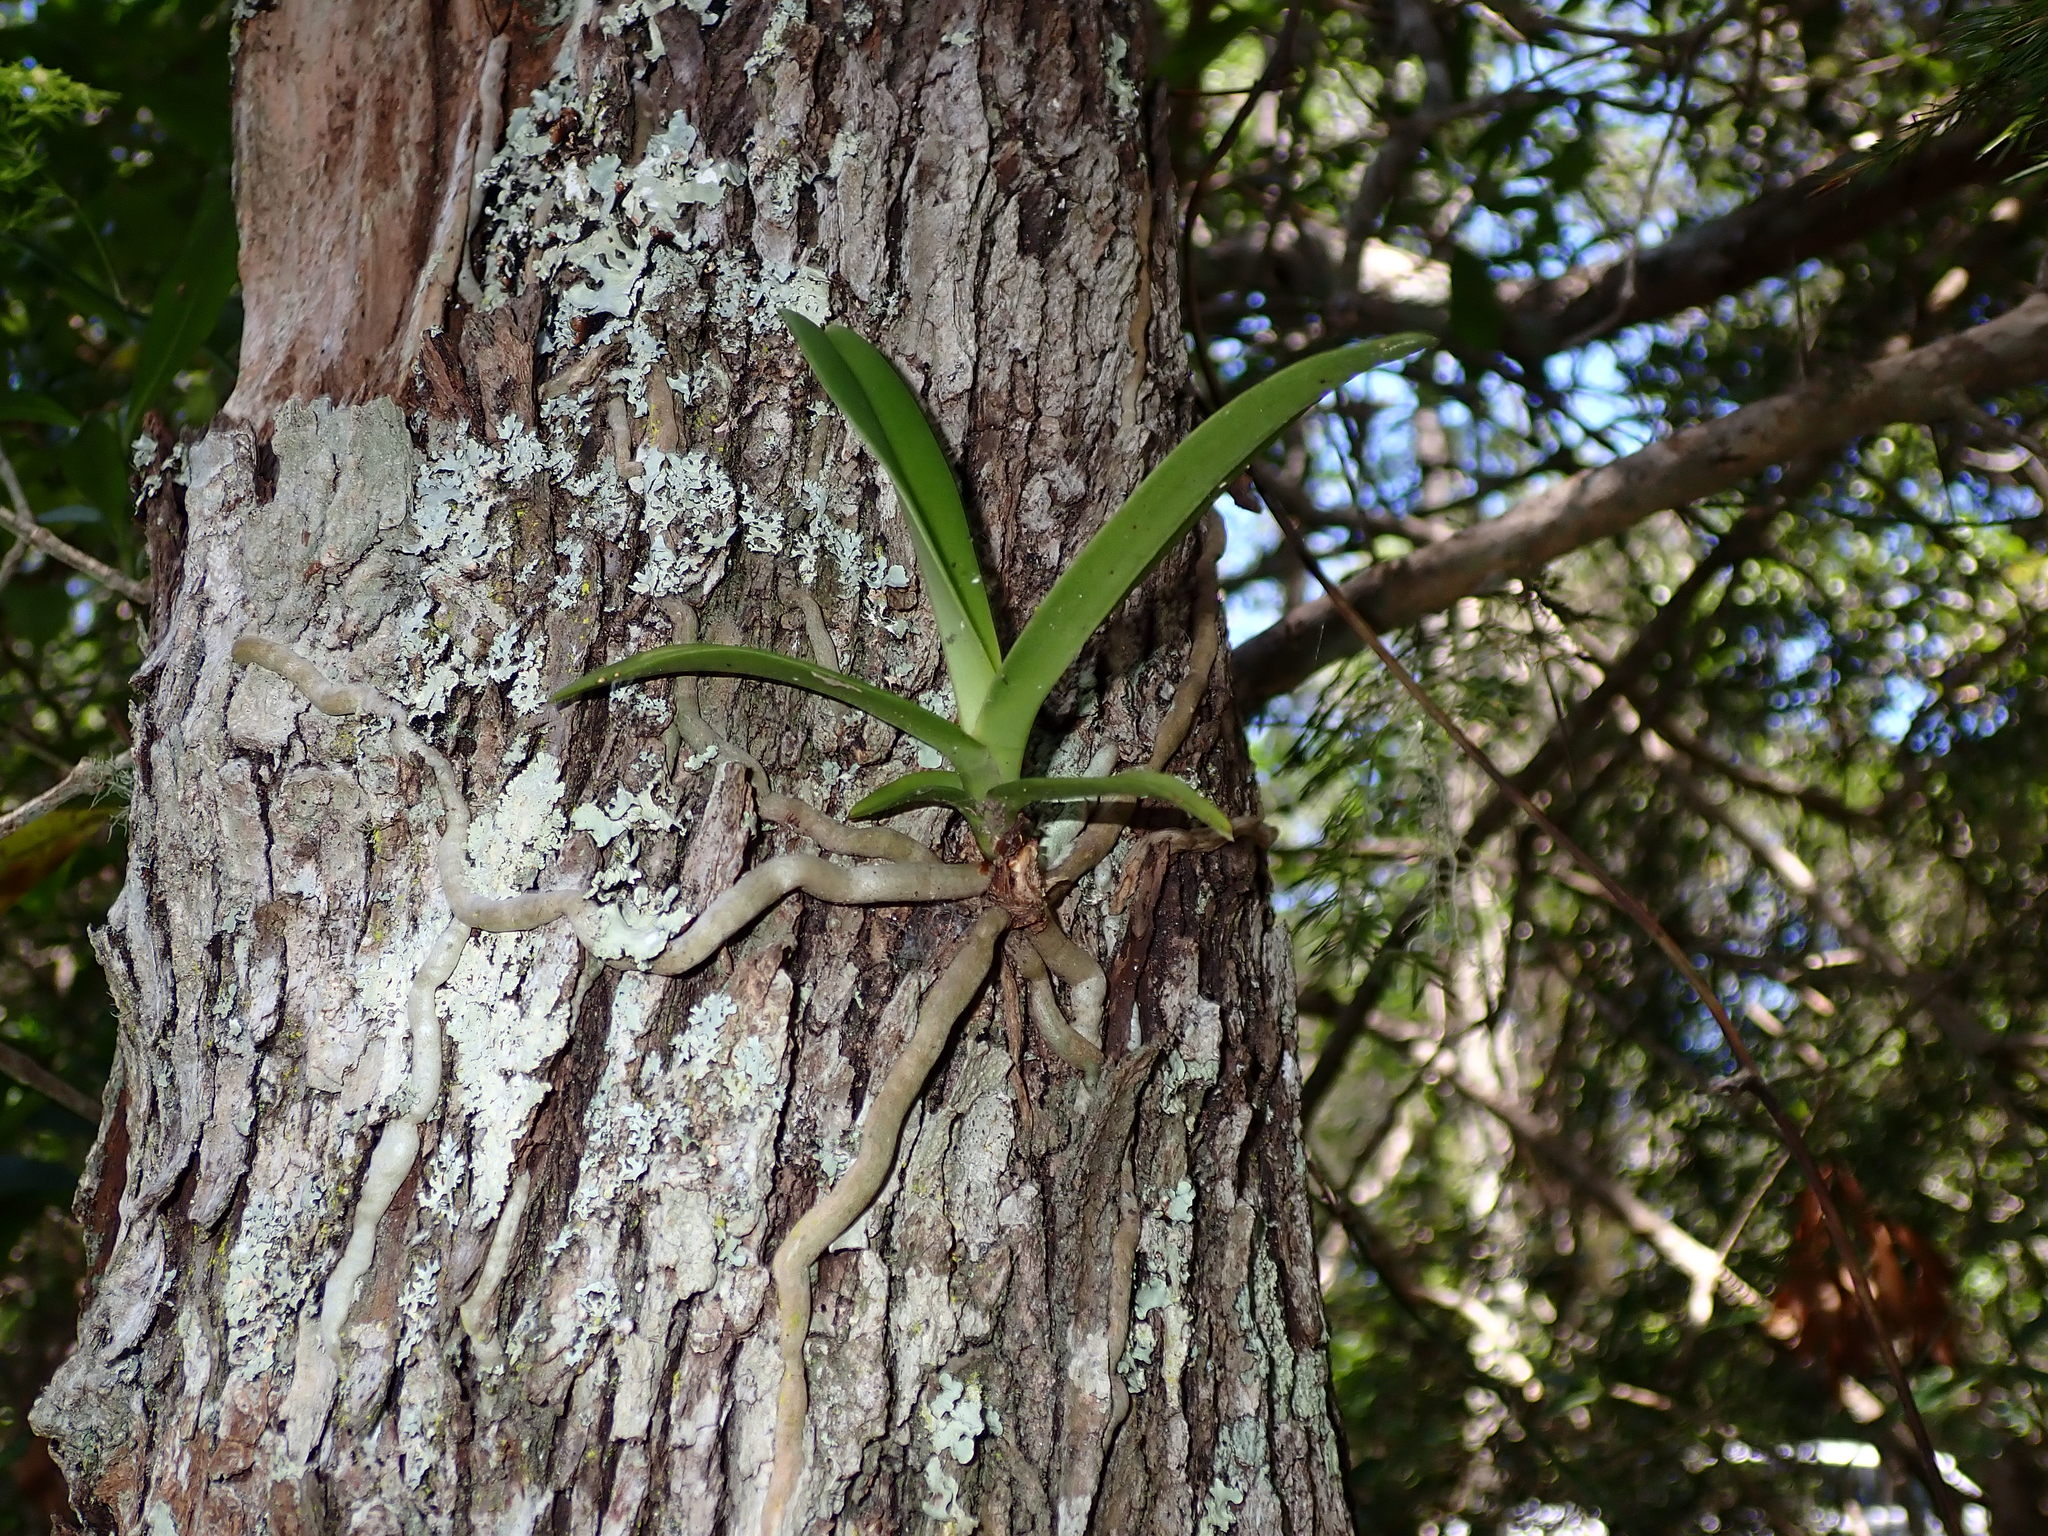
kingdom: Plantae
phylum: Tracheophyta
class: Liliopsida
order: Asparagales
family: Orchidaceae
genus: Cyrtorchis
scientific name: Cyrtorchis arcuata
